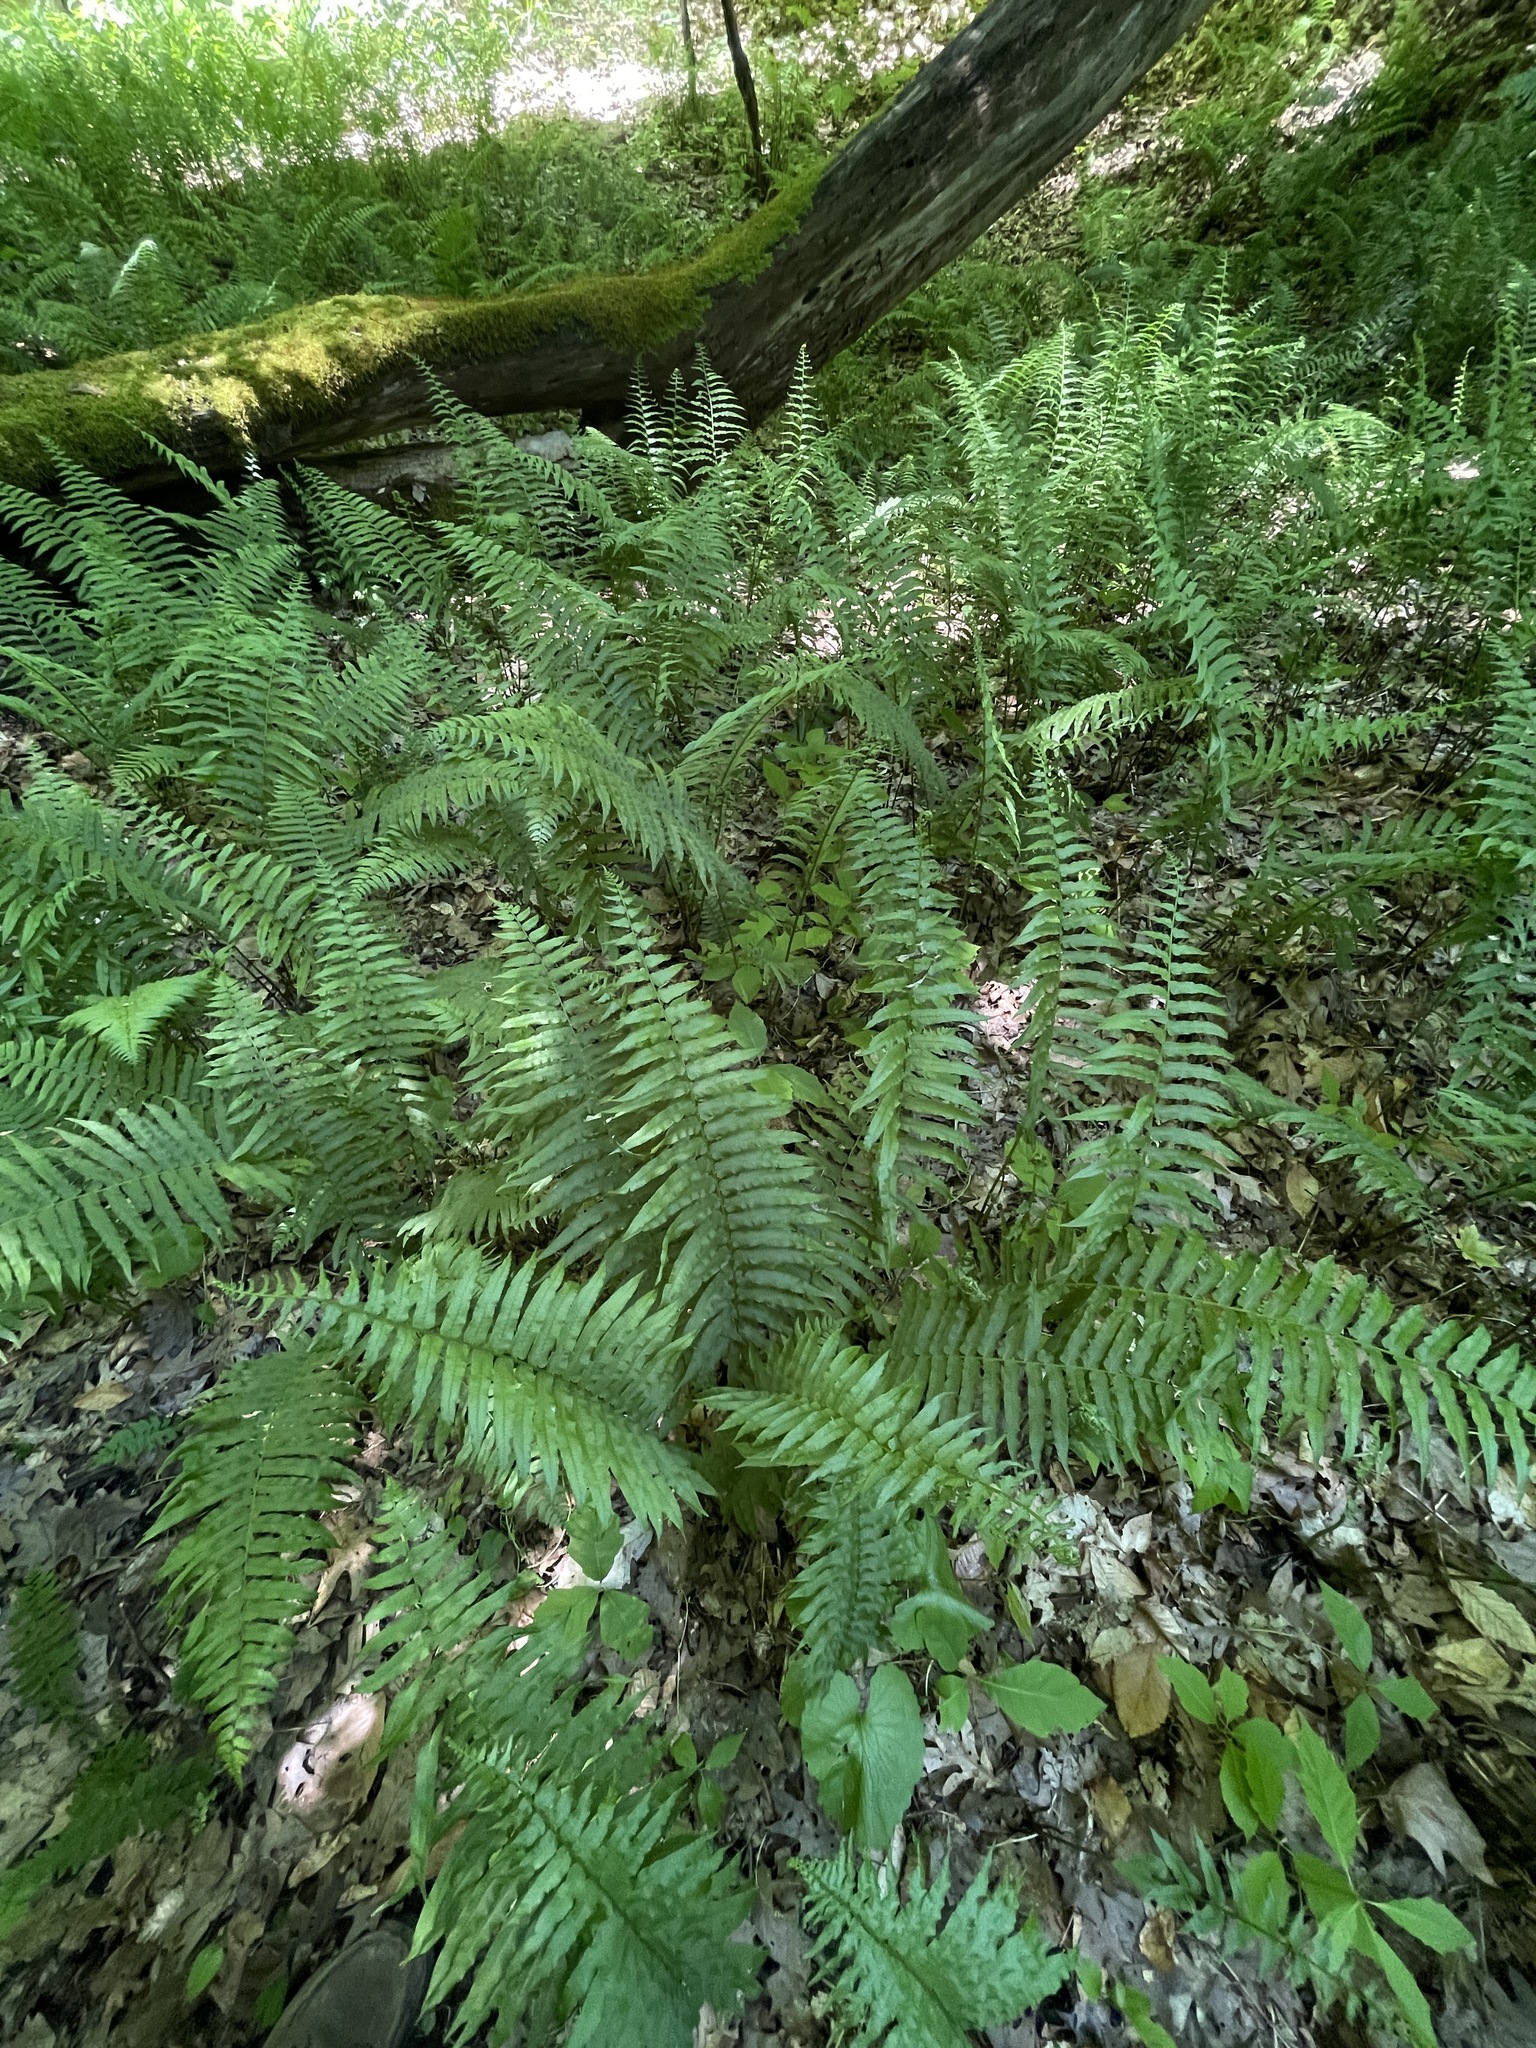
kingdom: Plantae
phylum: Tracheophyta
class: Polypodiopsida
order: Polypodiales
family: Diplaziopsidaceae
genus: Homalosorus
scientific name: Homalosorus pycnocarpos
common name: Glade fern
